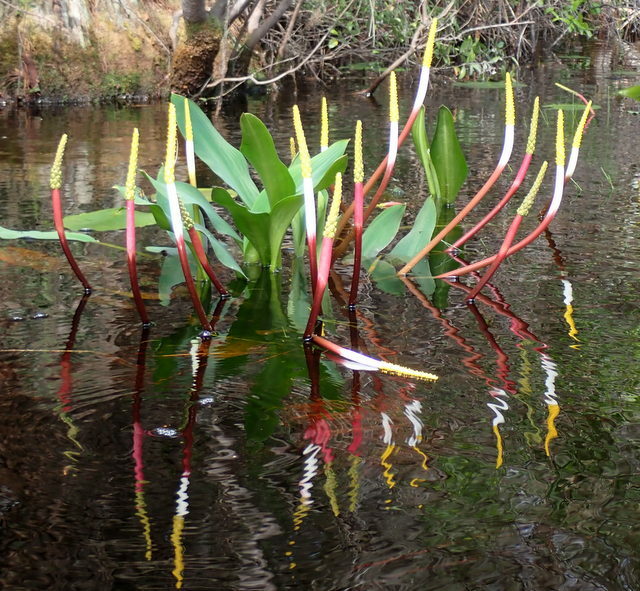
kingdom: Plantae
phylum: Tracheophyta
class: Liliopsida
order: Alismatales
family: Araceae
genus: Orontium
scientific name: Orontium aquaticum
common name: Golden-club
